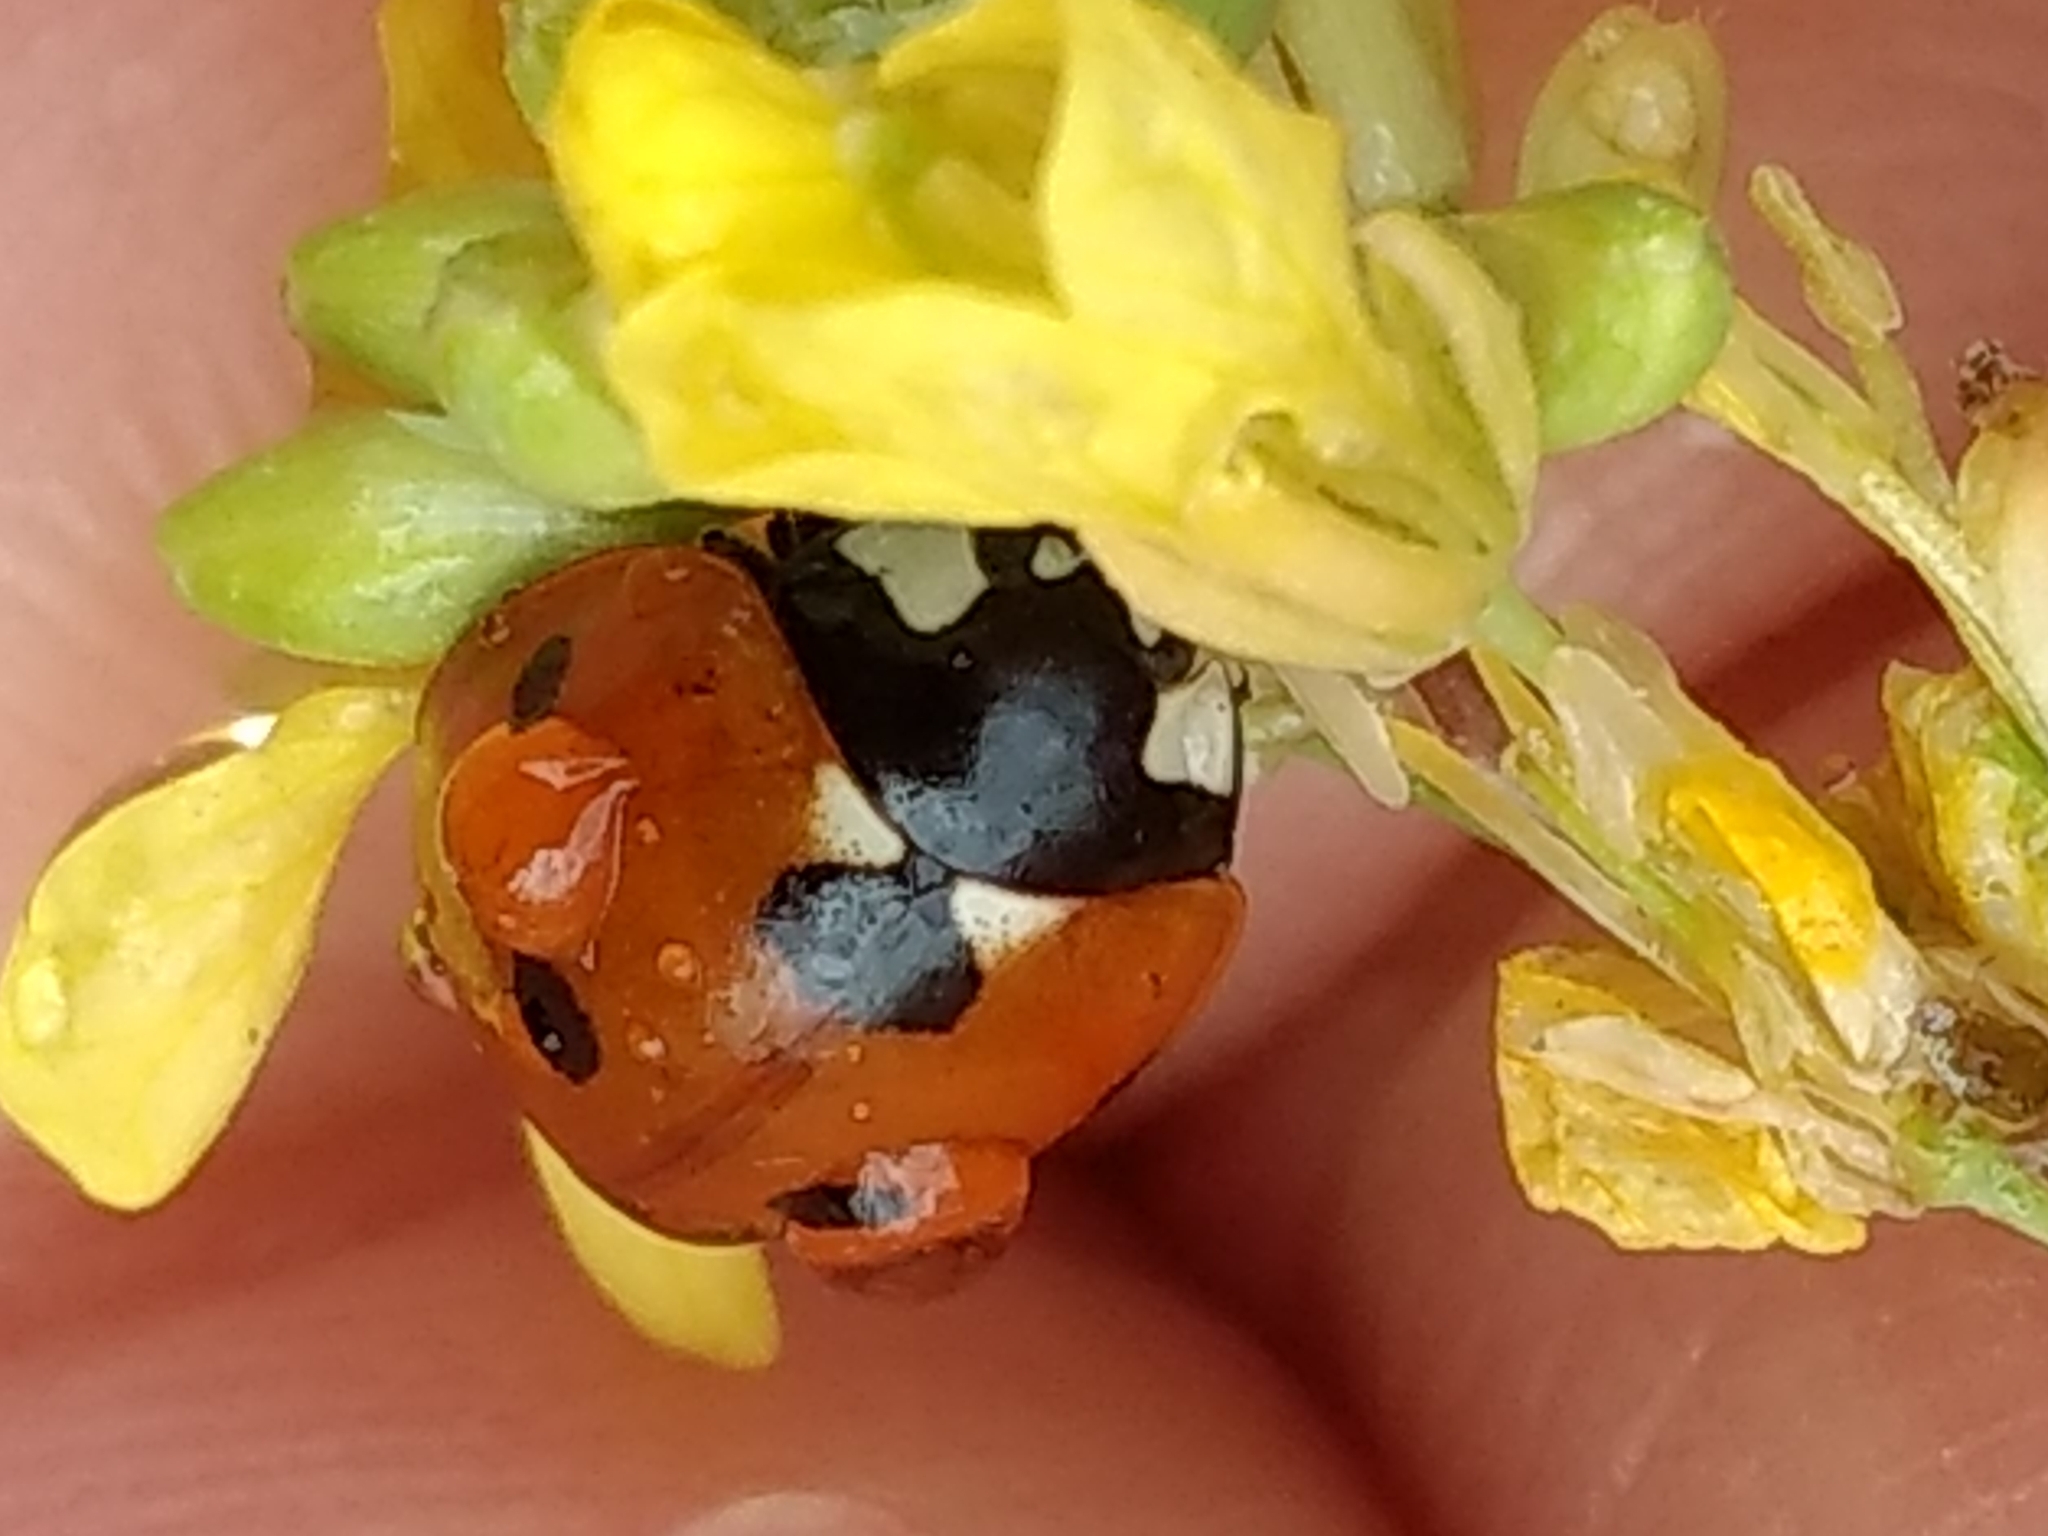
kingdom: Animalia
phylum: Arthropoda
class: Insecta
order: Coleoptera
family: Coccinellidae
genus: Coccinella
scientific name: Coccinella septempunctata
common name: Sevenspotted lady beetle
